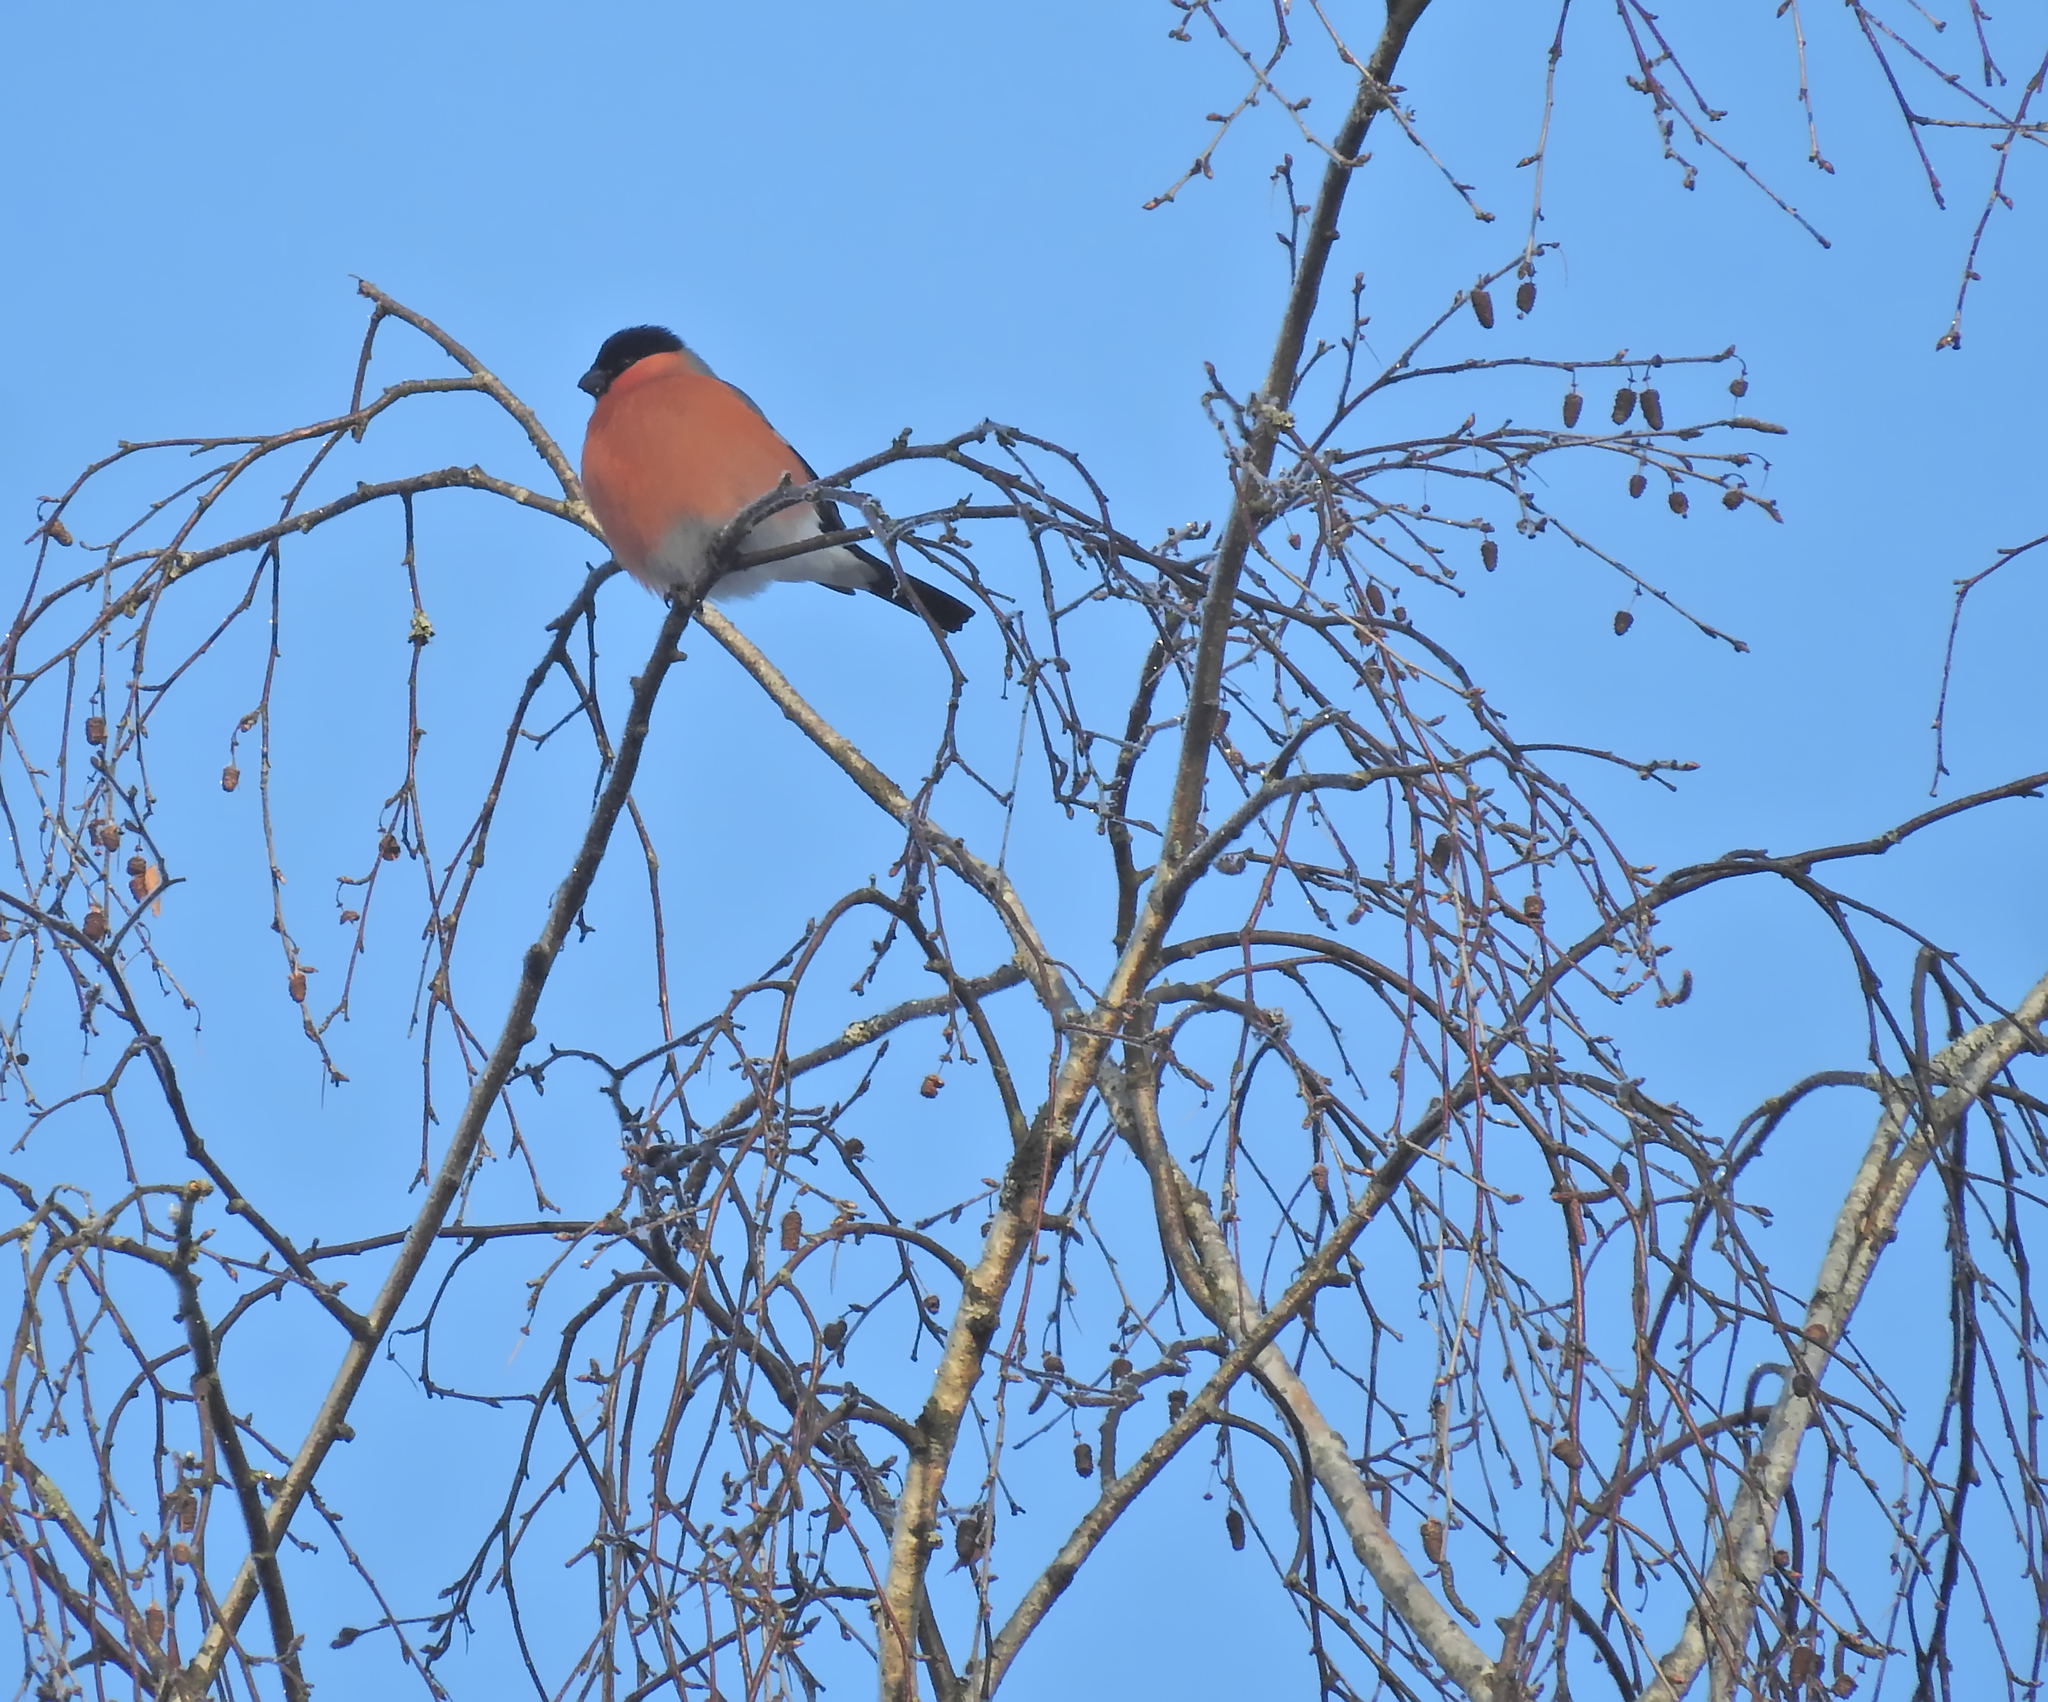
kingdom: Animalia
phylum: Chordata
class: Aves
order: Passeriformes
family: Fringillidae
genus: Pyrrhula
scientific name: Pyrrhula pyrrhula
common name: Eurasian bullfinch
